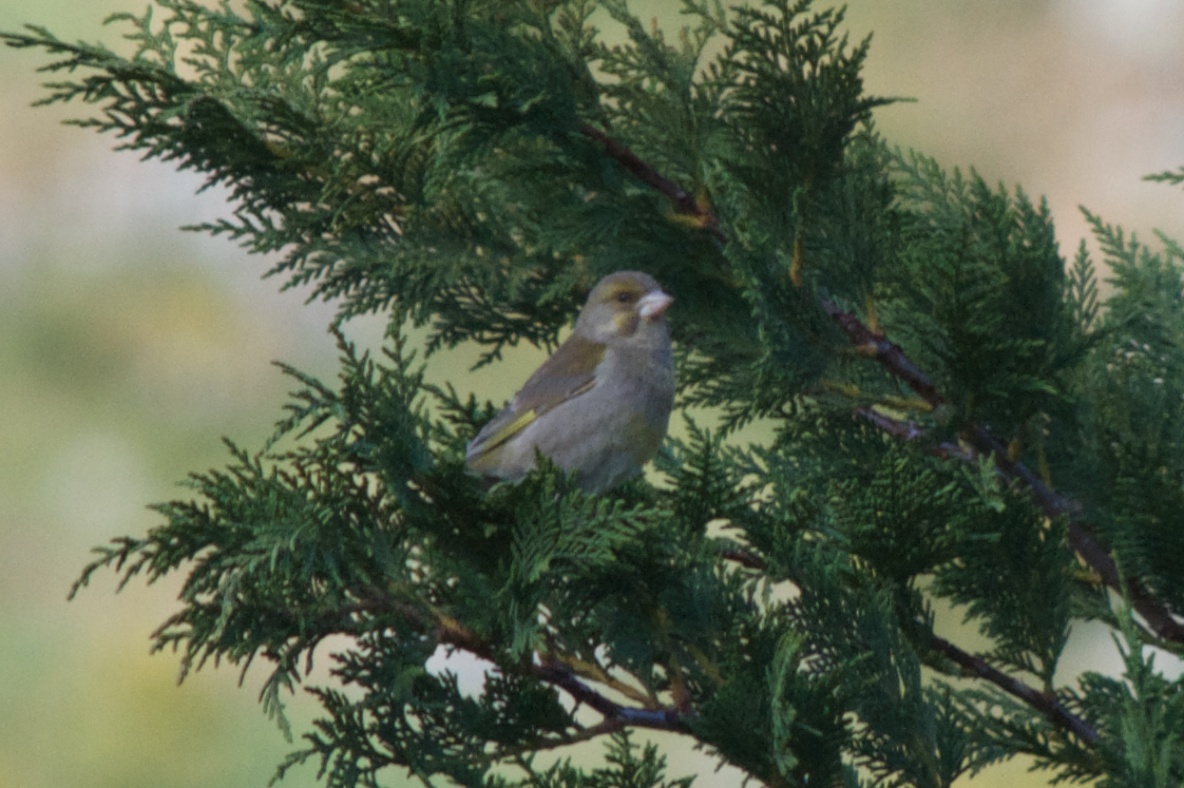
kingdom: Plantae
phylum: Tracheophyta
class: Liliopsida
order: Poales
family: Poaceae
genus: Chloris
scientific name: Chloris chloris
